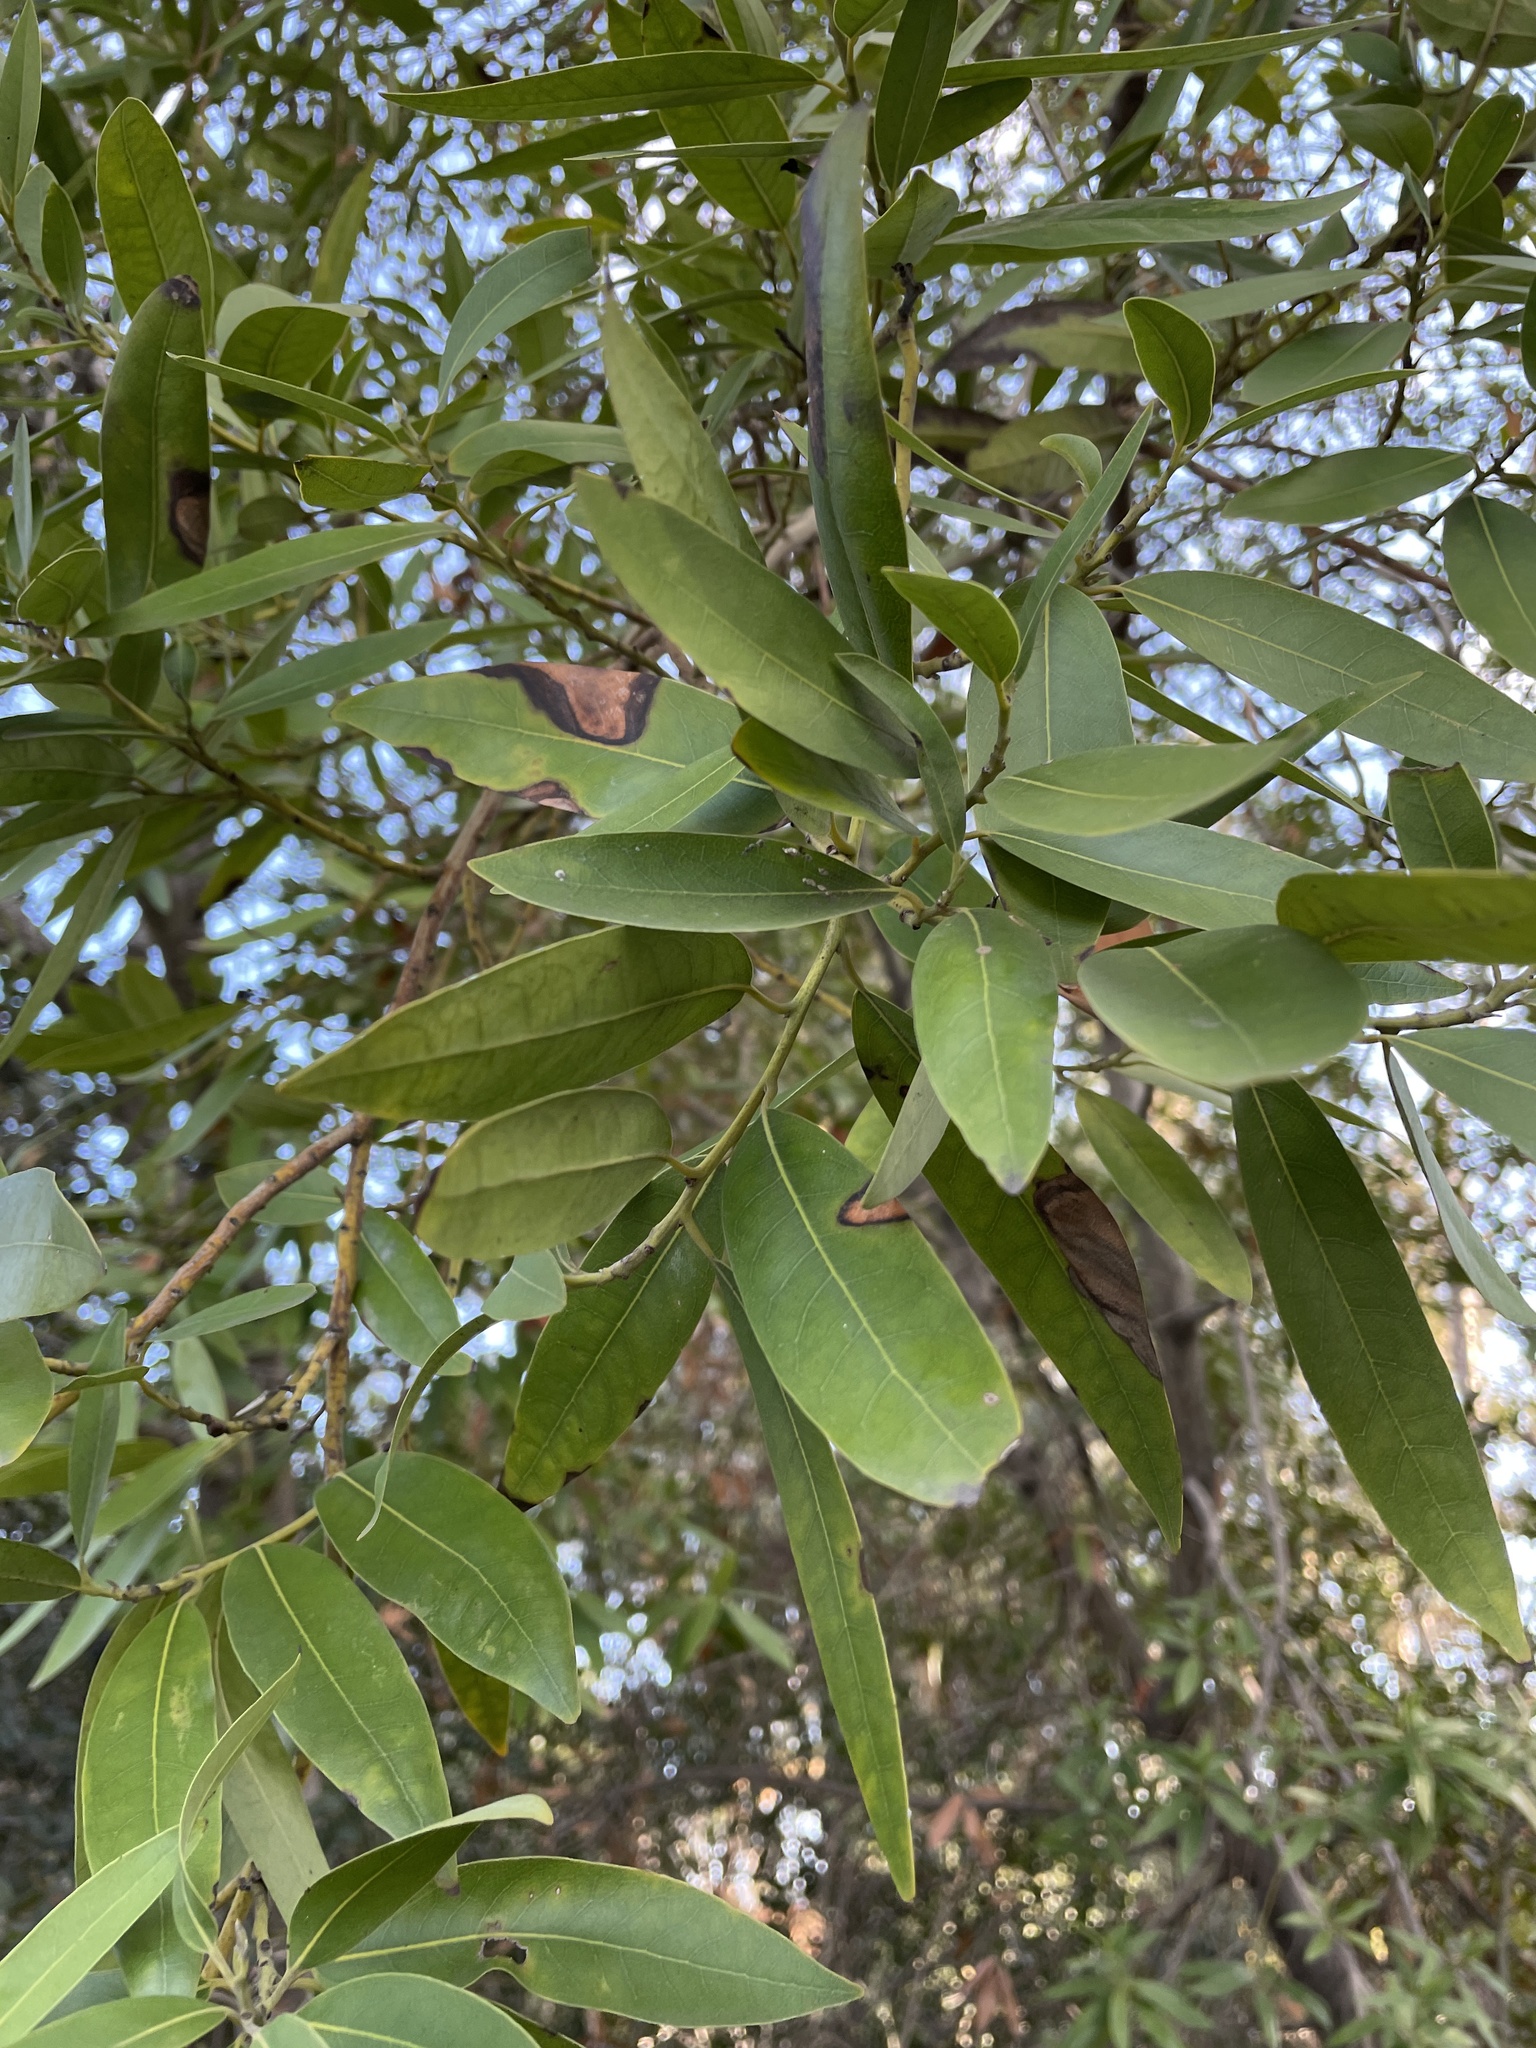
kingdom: Plantae
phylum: Tracheophyta
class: Magnoliopsida
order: Laurales
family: Lauraceae
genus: Umbellularia
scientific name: Umbellularia californica
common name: California bay
